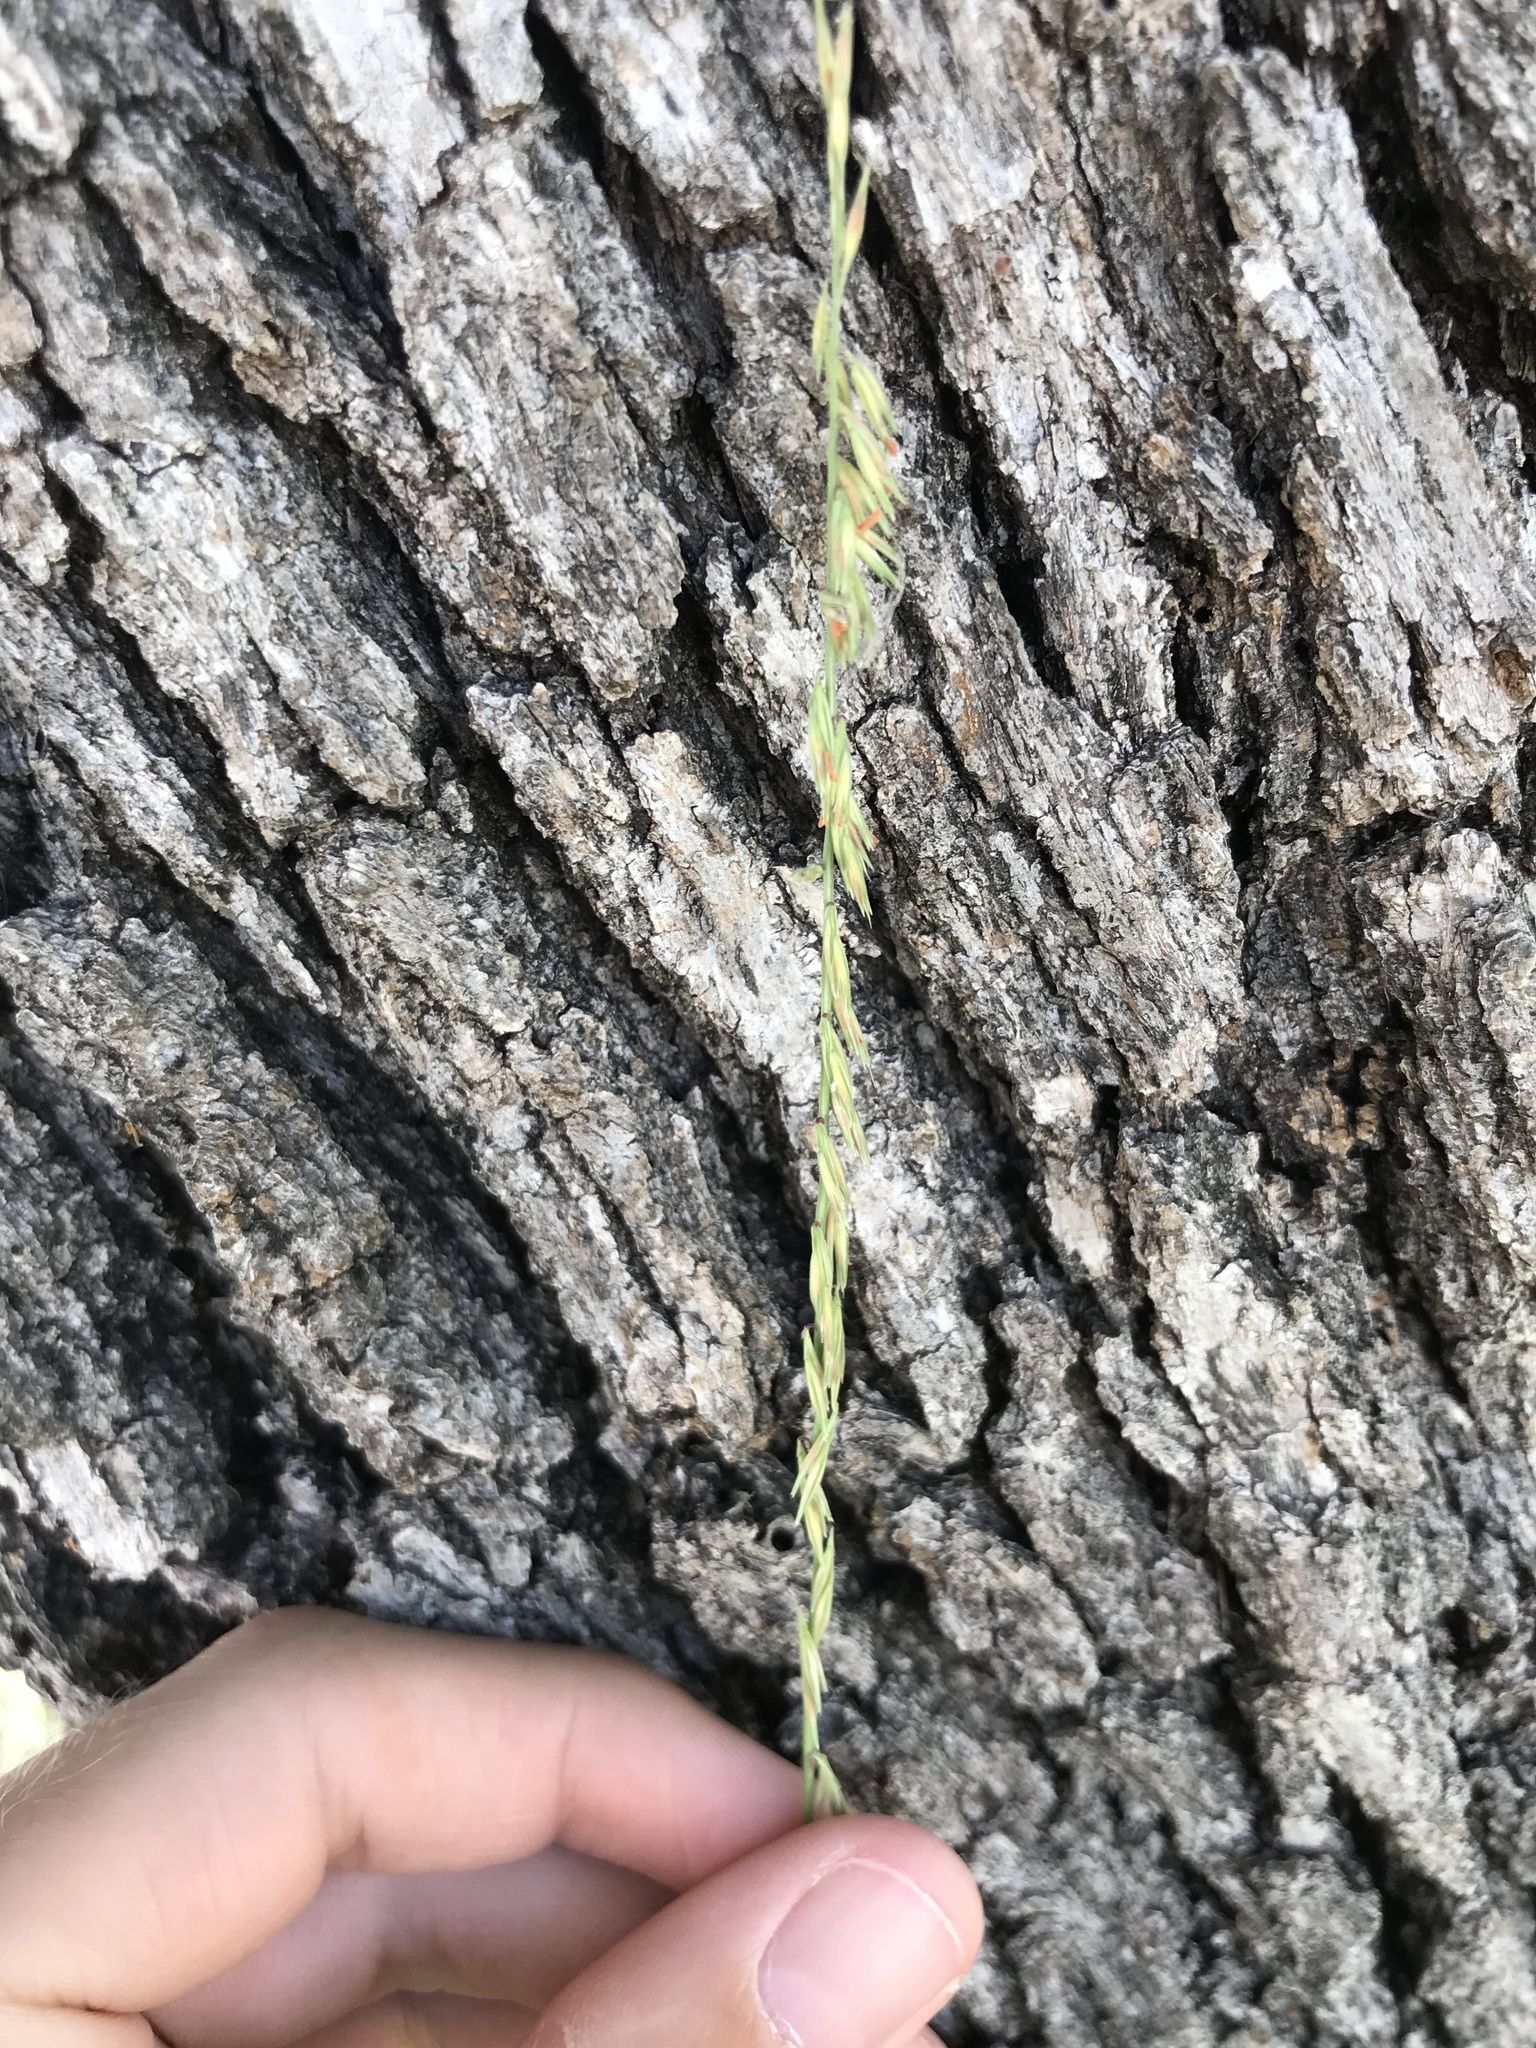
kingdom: Plantae
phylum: Tracheophyta
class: Liliopsida
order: Poales
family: Poaceae
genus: Bouteloua
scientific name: Bouteloua curtipendula
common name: Side-oats grama
